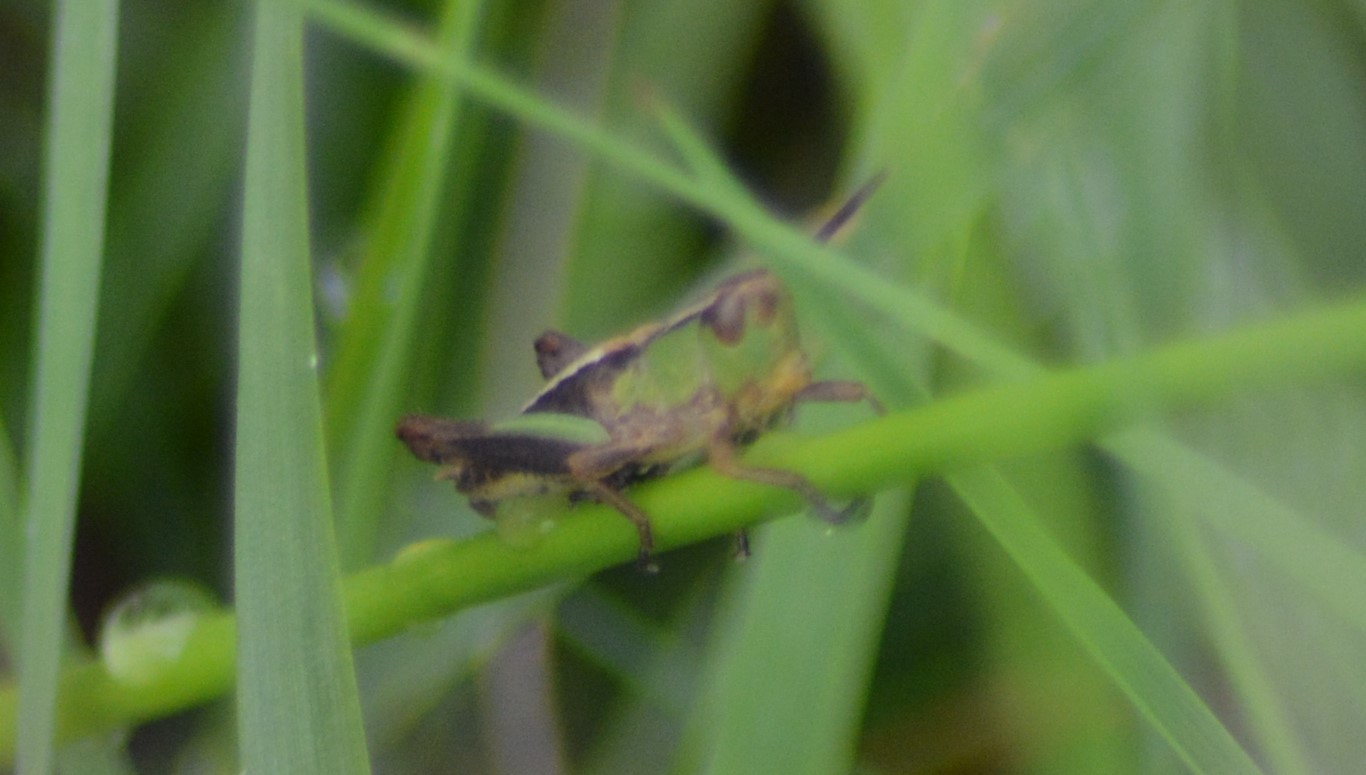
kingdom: Animalia
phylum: Arthropoda
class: Insecta
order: Orthoptera
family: Acrididae
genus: Pseudochorthippus
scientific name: Pseudochorthippus parallelus
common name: Meadow grasshopper
